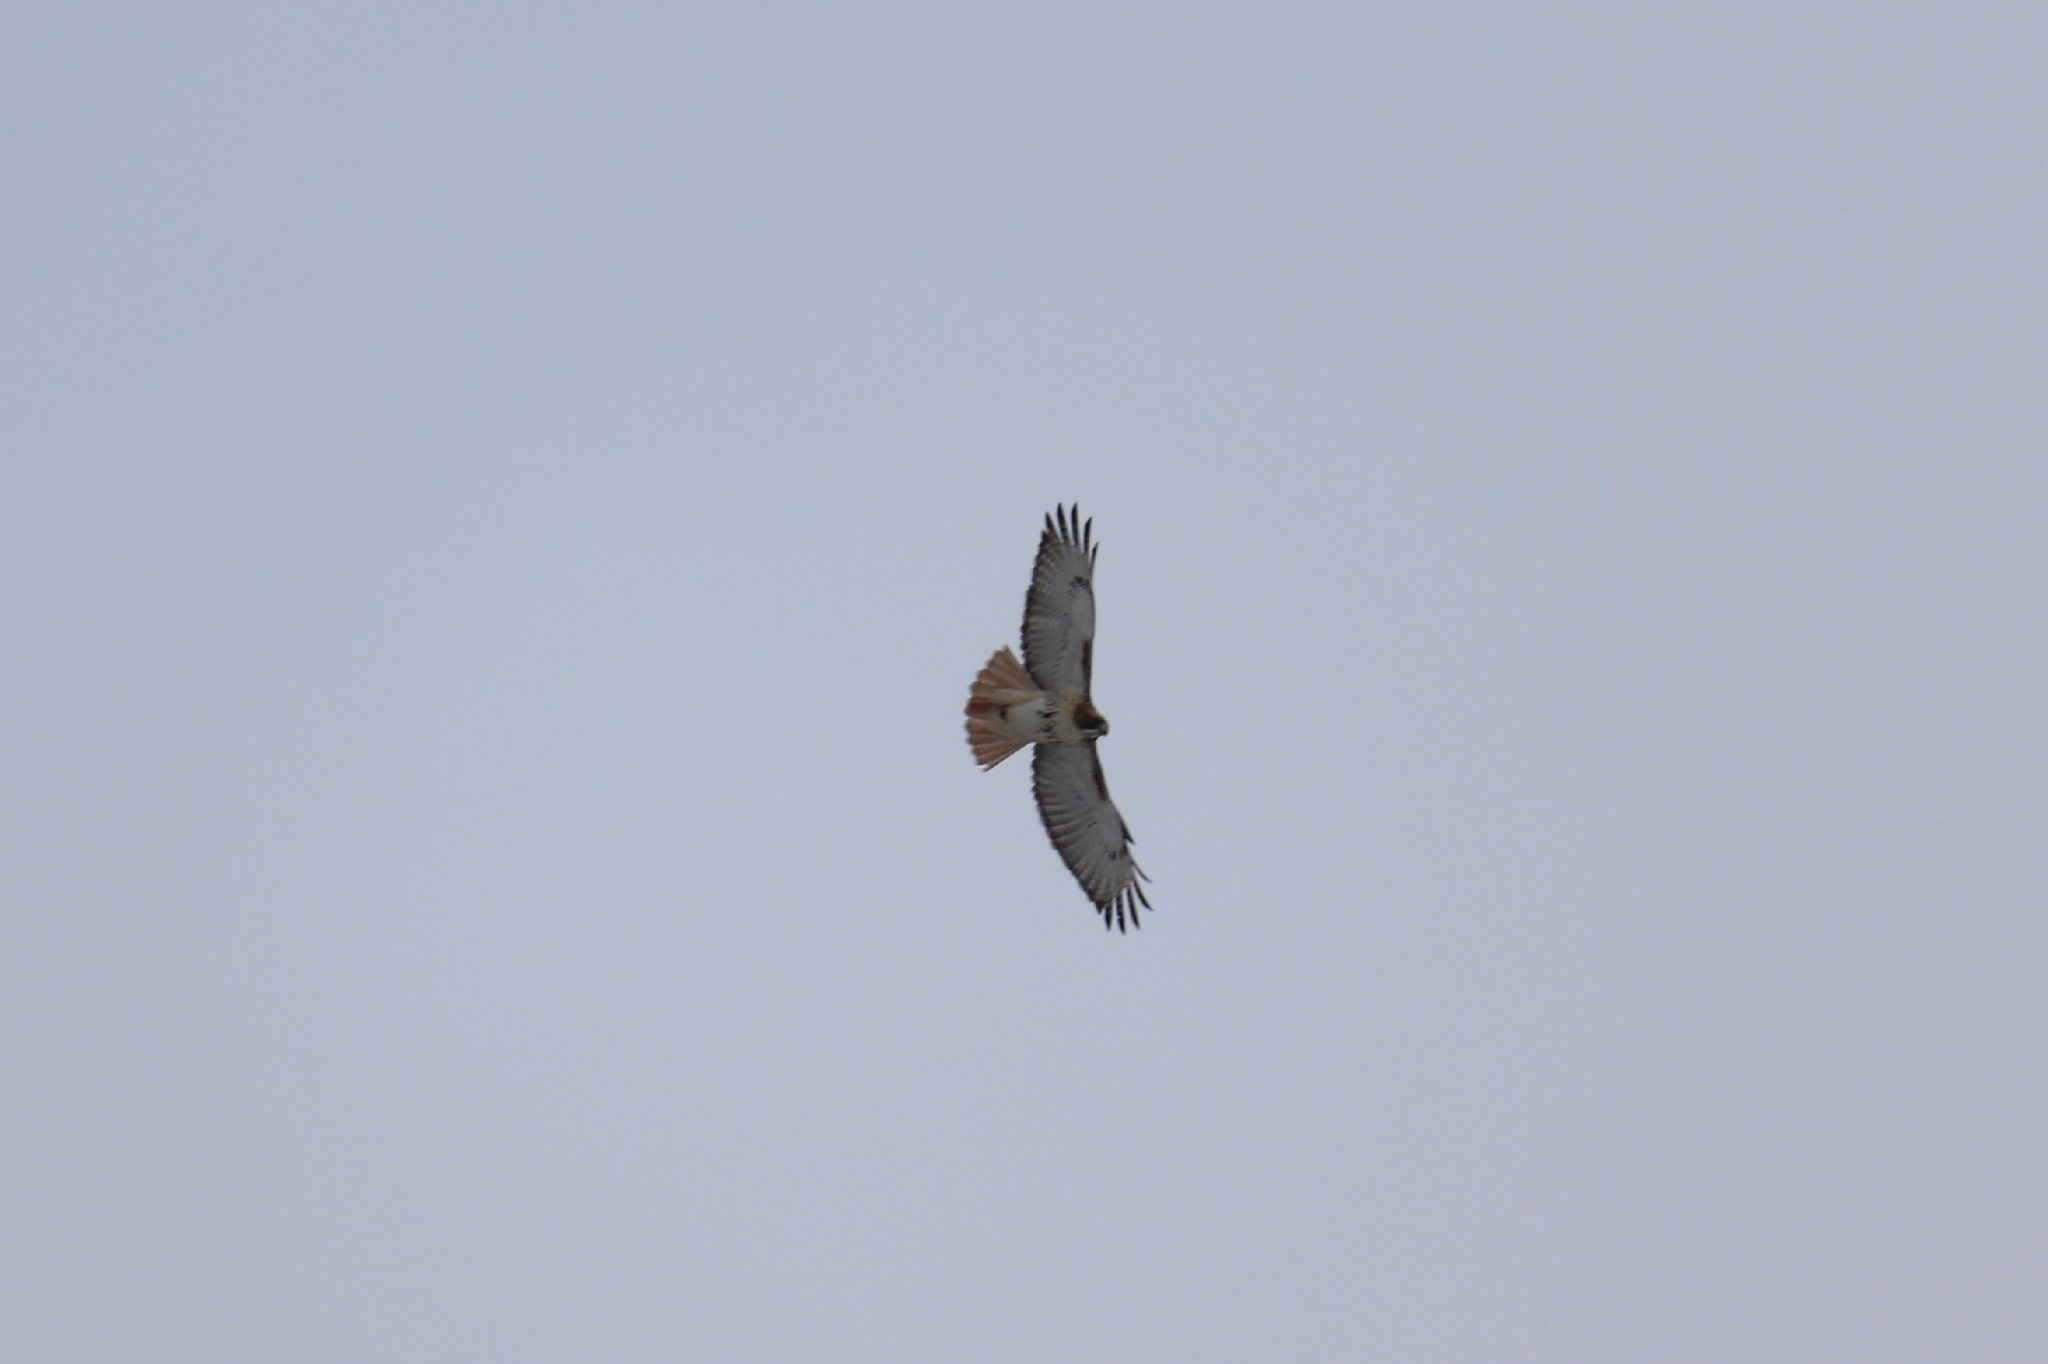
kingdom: Animalia
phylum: Chordata
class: Aves
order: Accipitriformes
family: Accipitridae
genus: Buteo
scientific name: Buteo jamaicensis
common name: Red-tailed hawk
